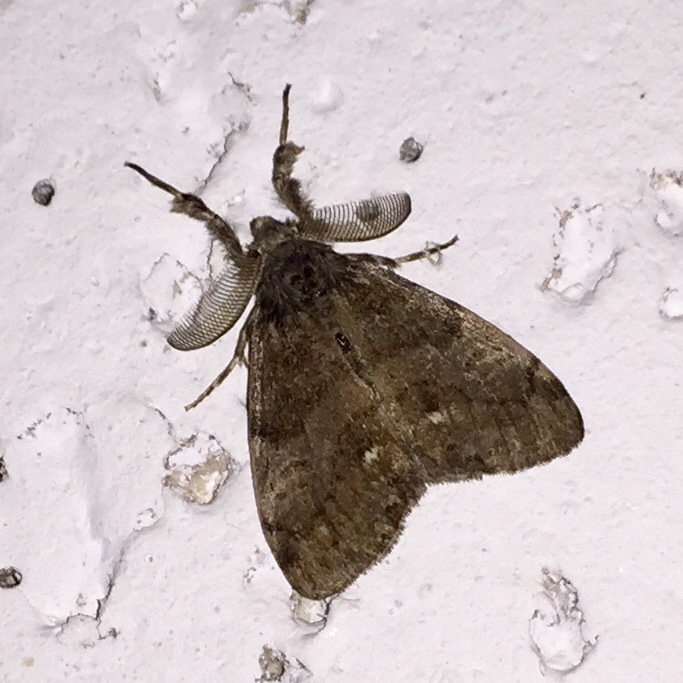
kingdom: Animalia
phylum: Arthropoda
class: Insecta
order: Lepidoptera
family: Erebidae
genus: Orgyia
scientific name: Orgyia leucostigma
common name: White-marked tussock moth
